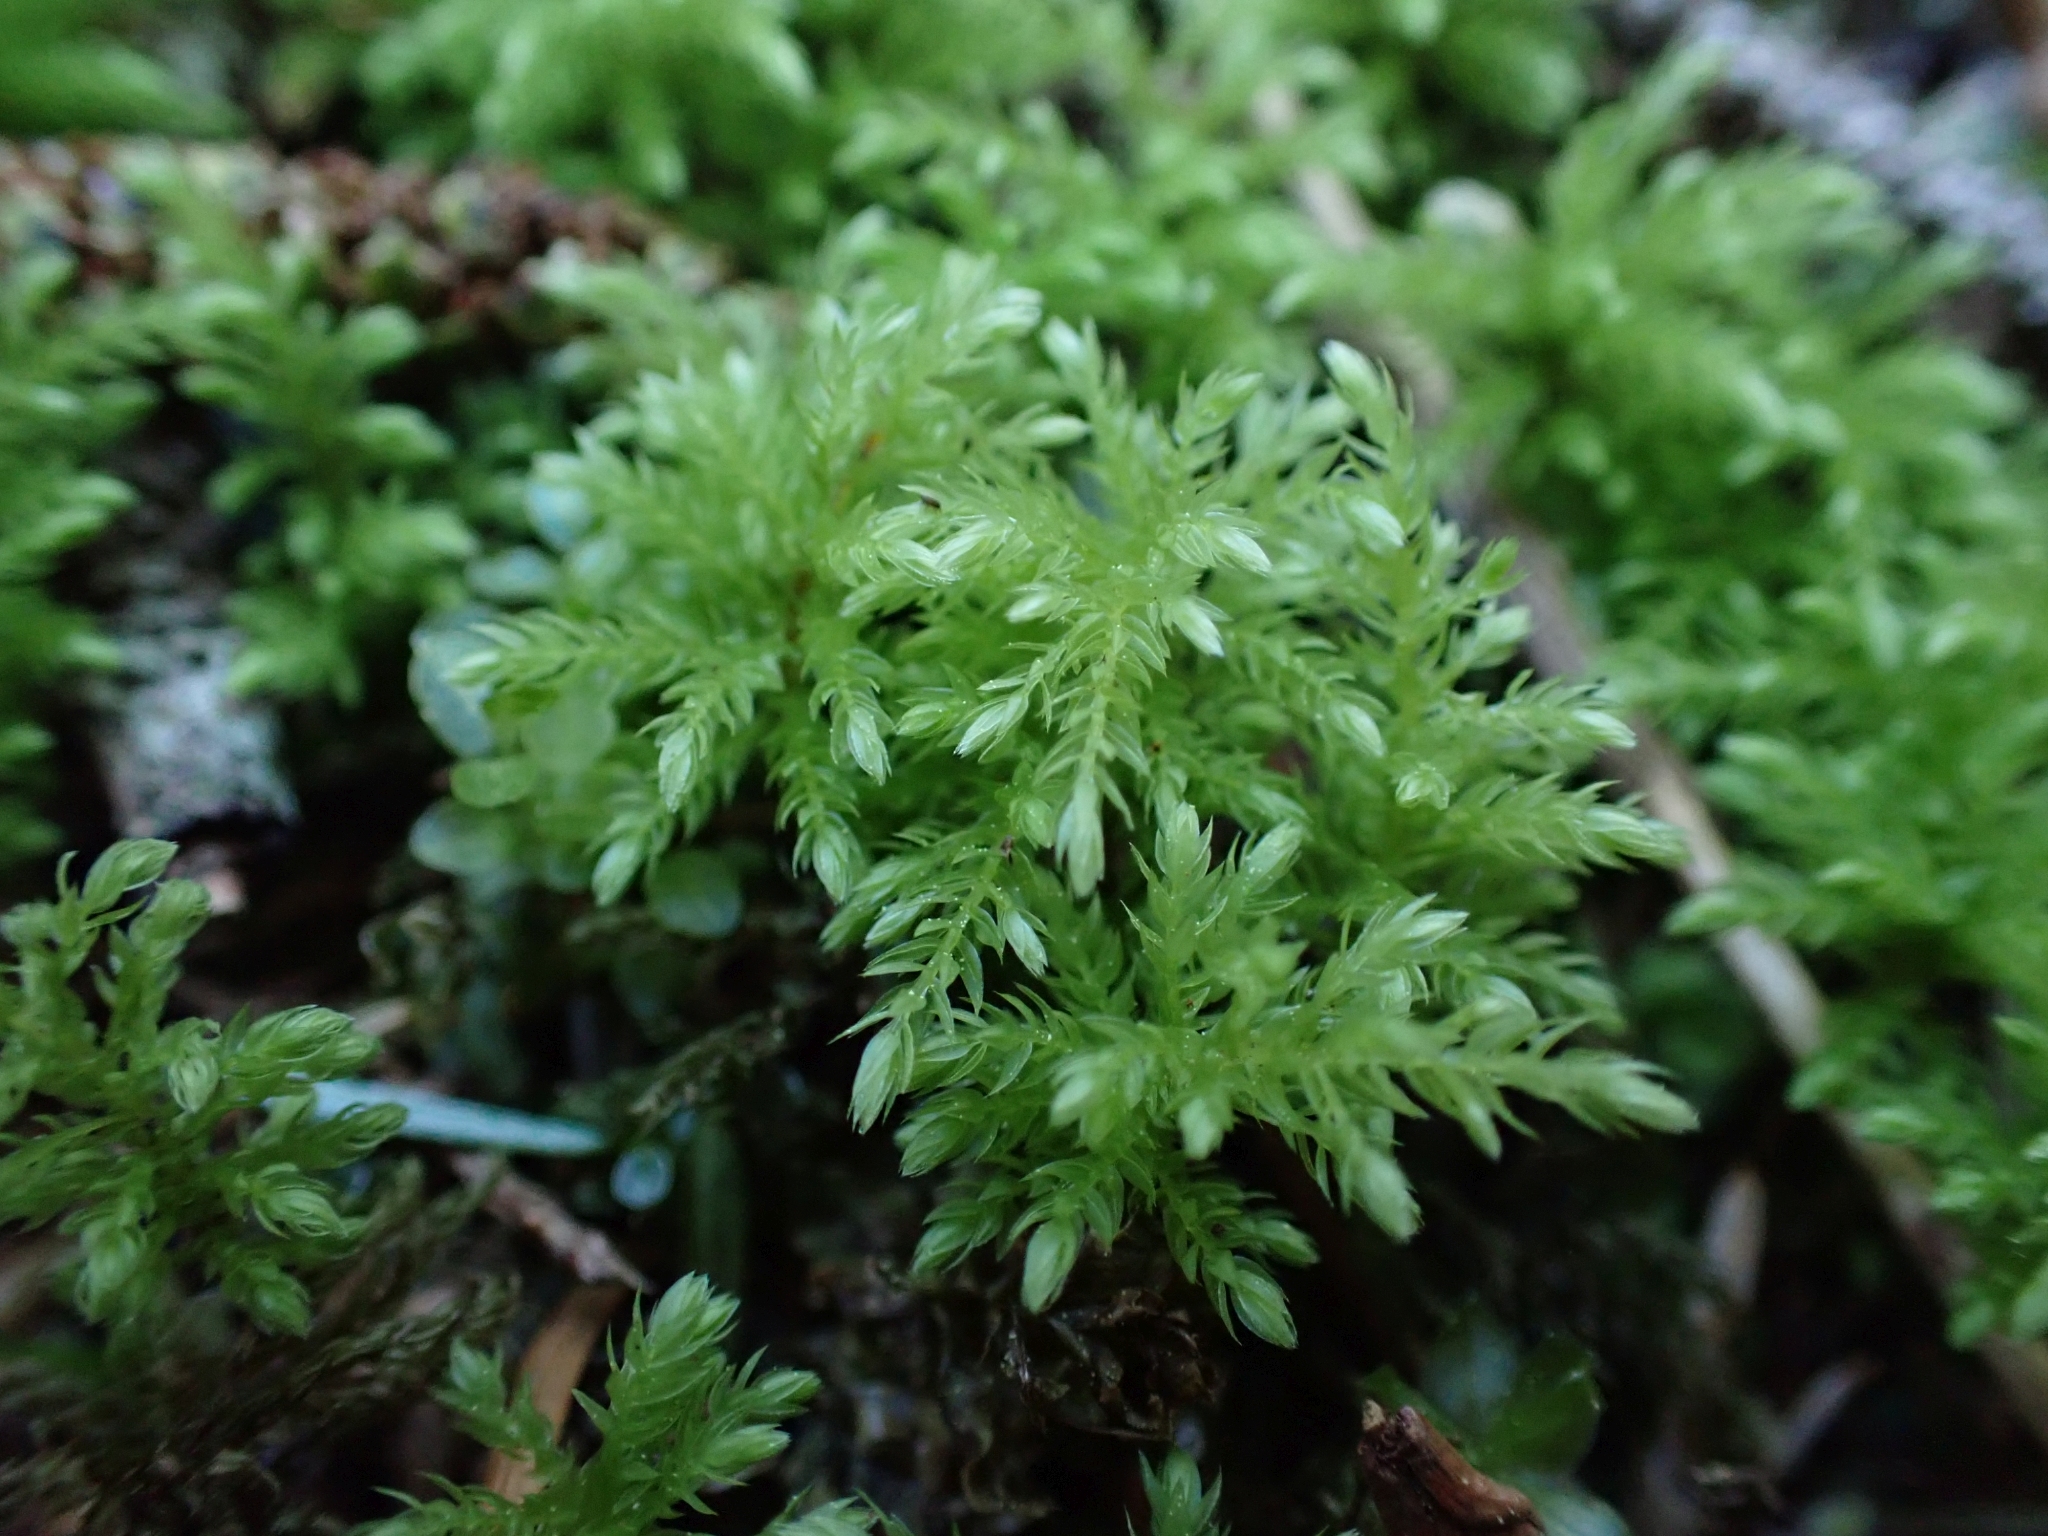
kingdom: Plantae
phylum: Bryophyta
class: Bryopsida
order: Bryales
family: Mniaceae
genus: Leucolepis
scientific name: Leucolepis acanthoneura
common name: Leucolepis umbrella moss
